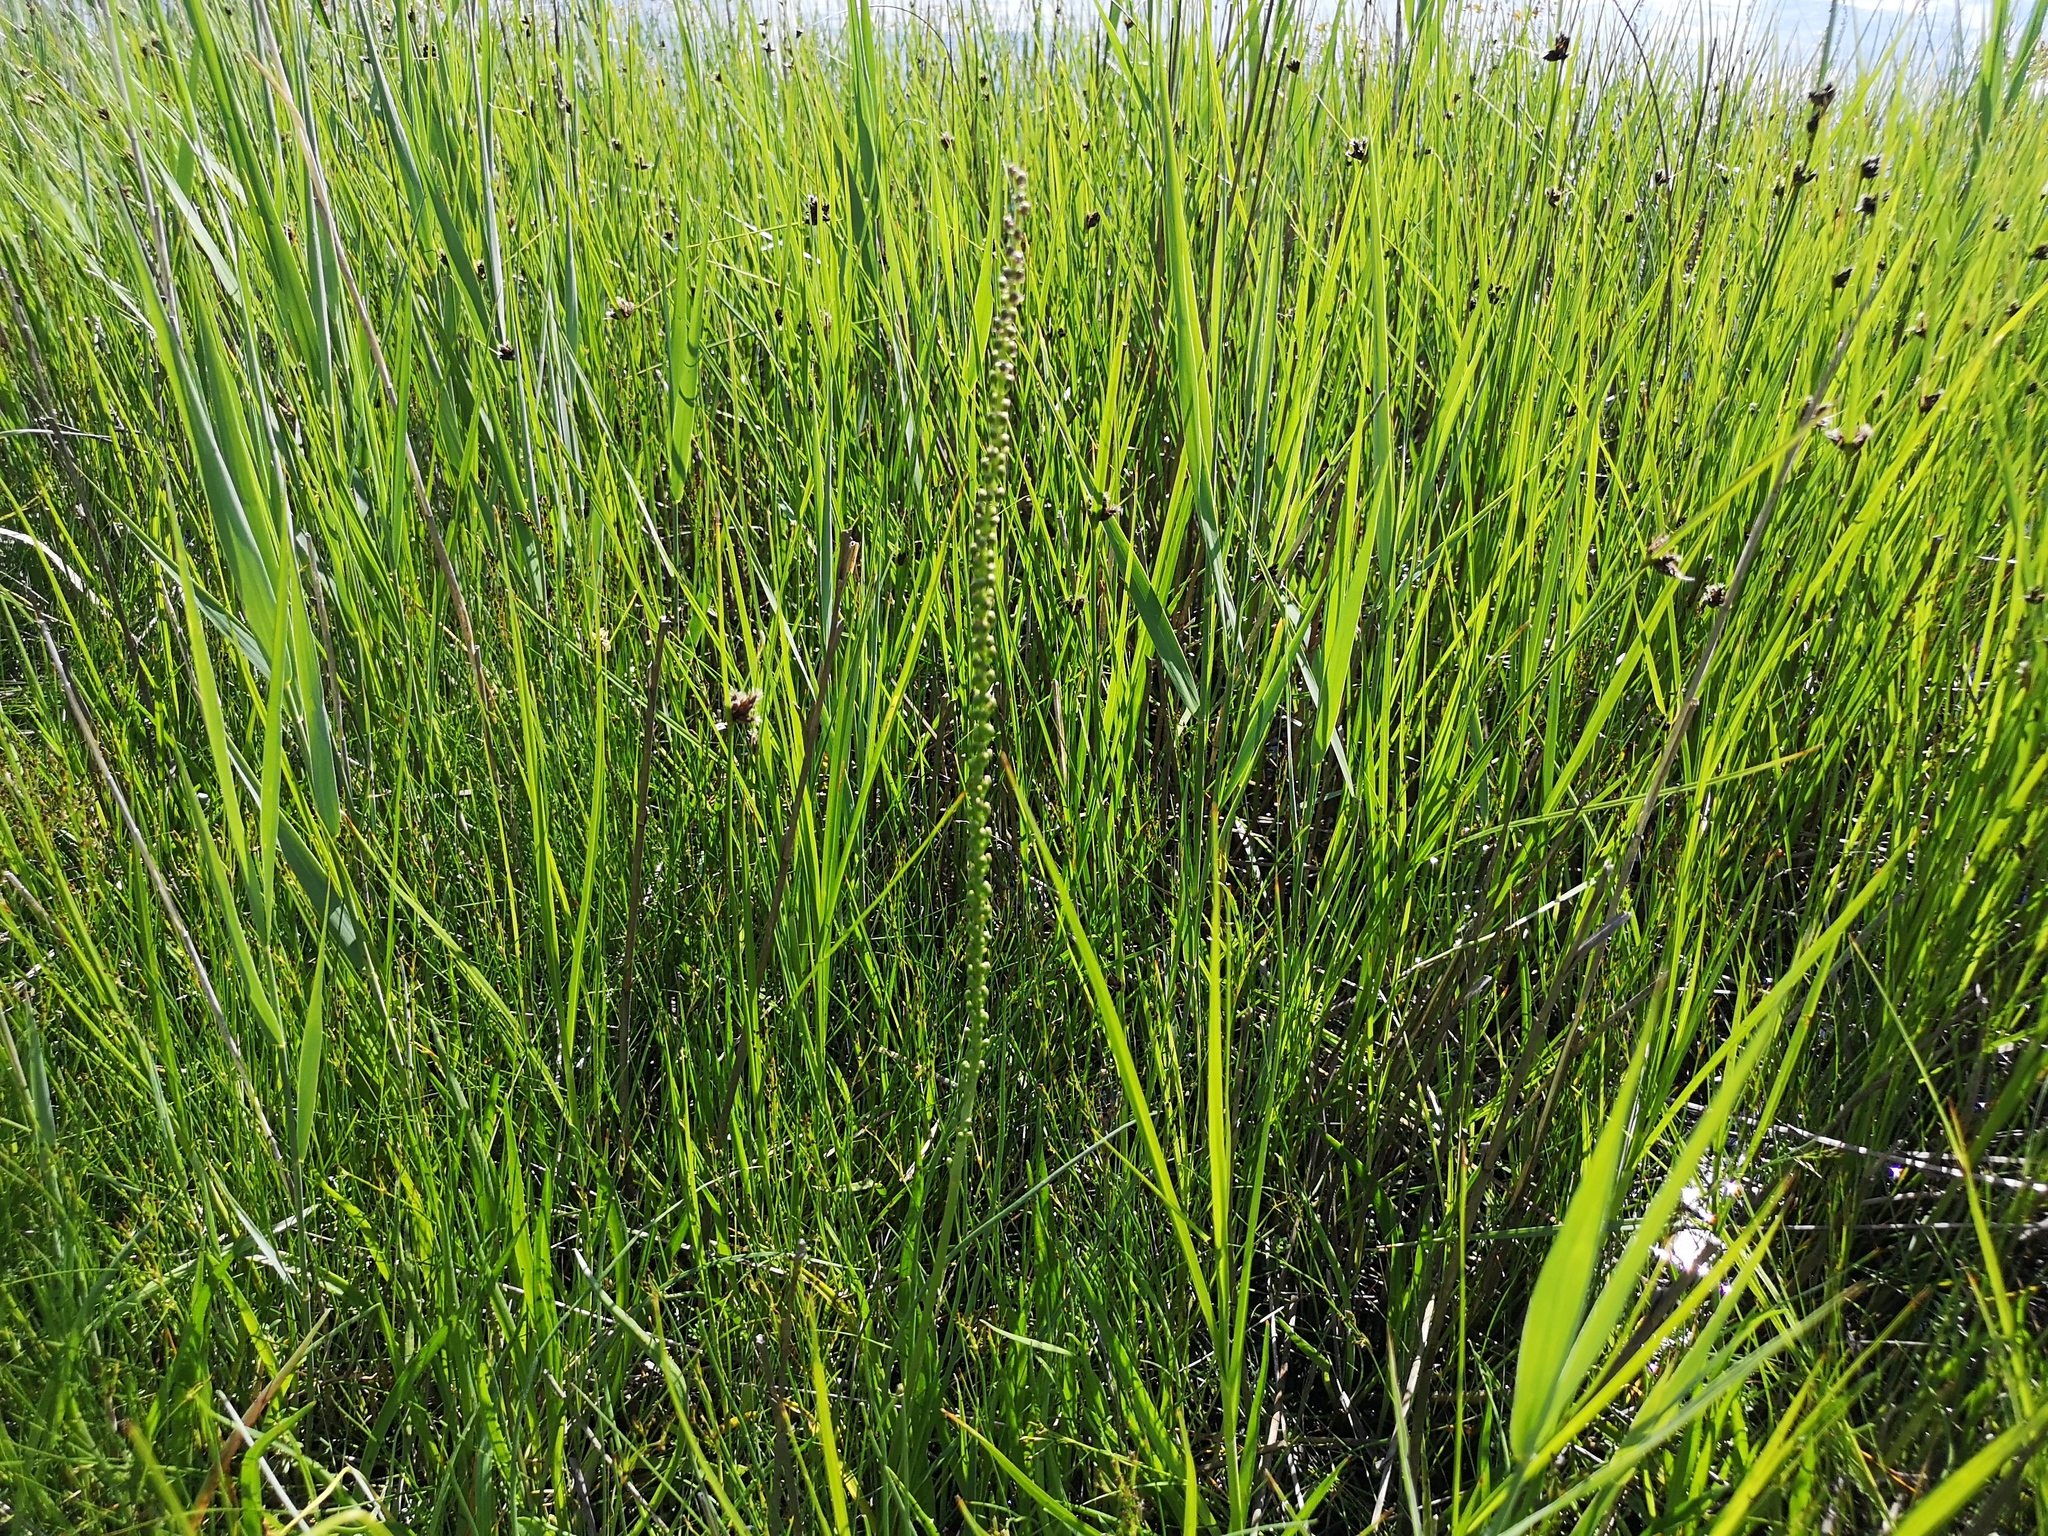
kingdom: Plantae
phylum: Tracheophyta
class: Liliopsida
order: Alismatales
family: Juncaginaceae
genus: Triglochin
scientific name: Triglochin maritima
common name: Sea arrowgrass
